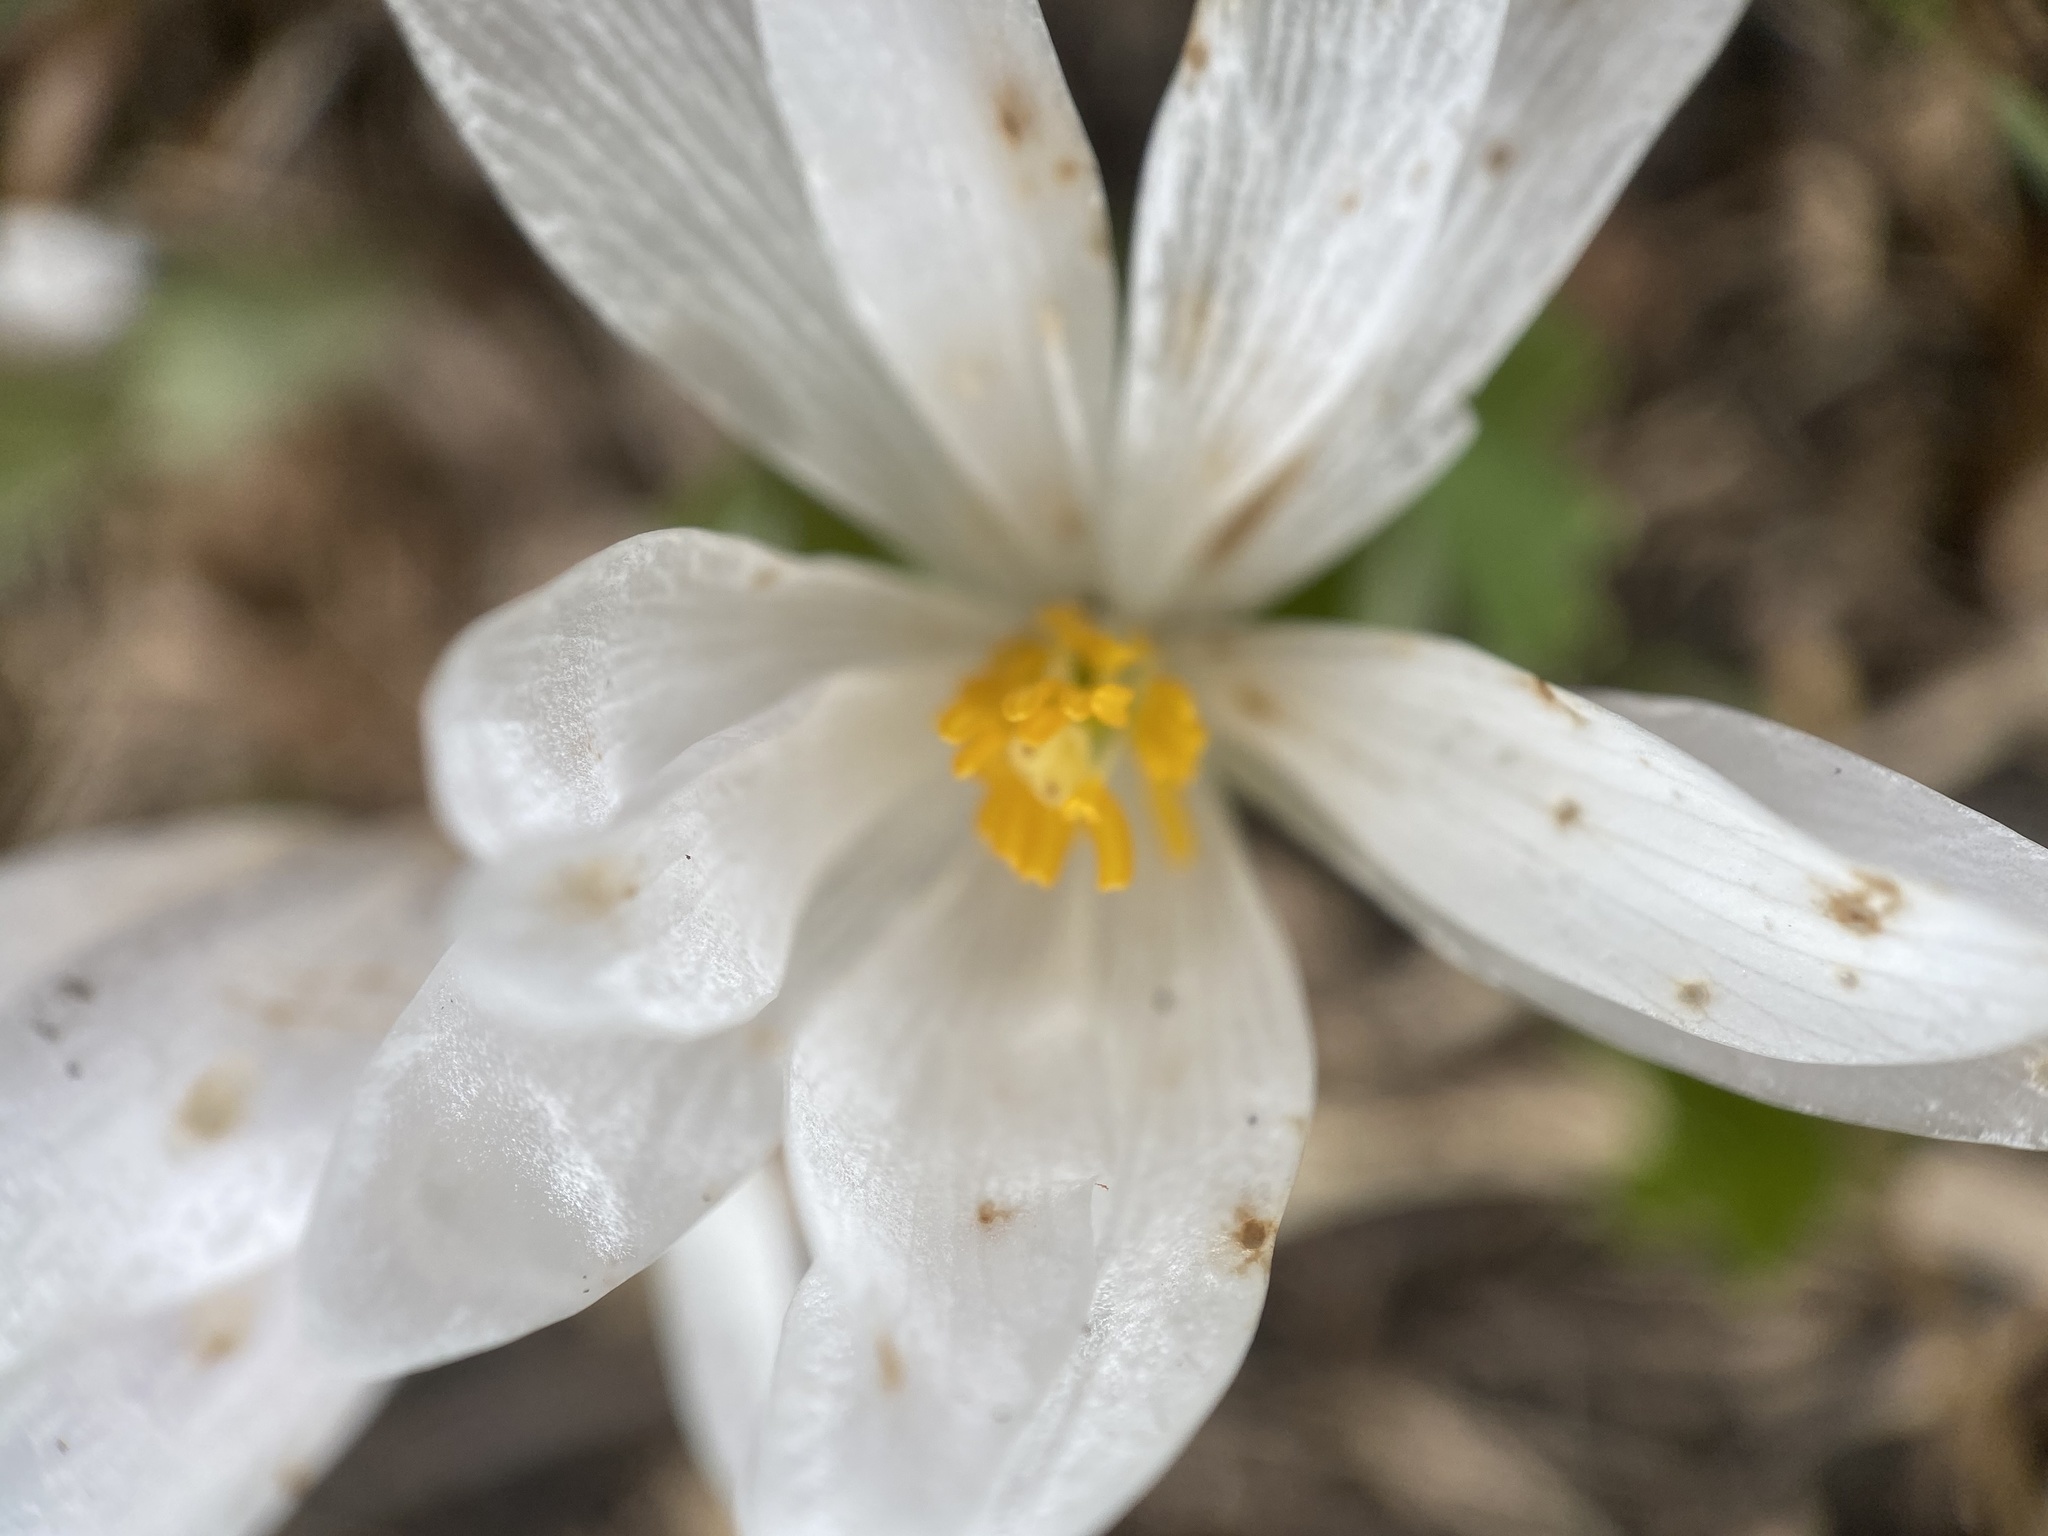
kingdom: Plantae
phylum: Tracheophyta
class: Magnoliopsida
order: Ranunculales
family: Papaveraceae
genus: Sanguinaria
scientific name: Sanguinaria canadensis
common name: Bloodroot
